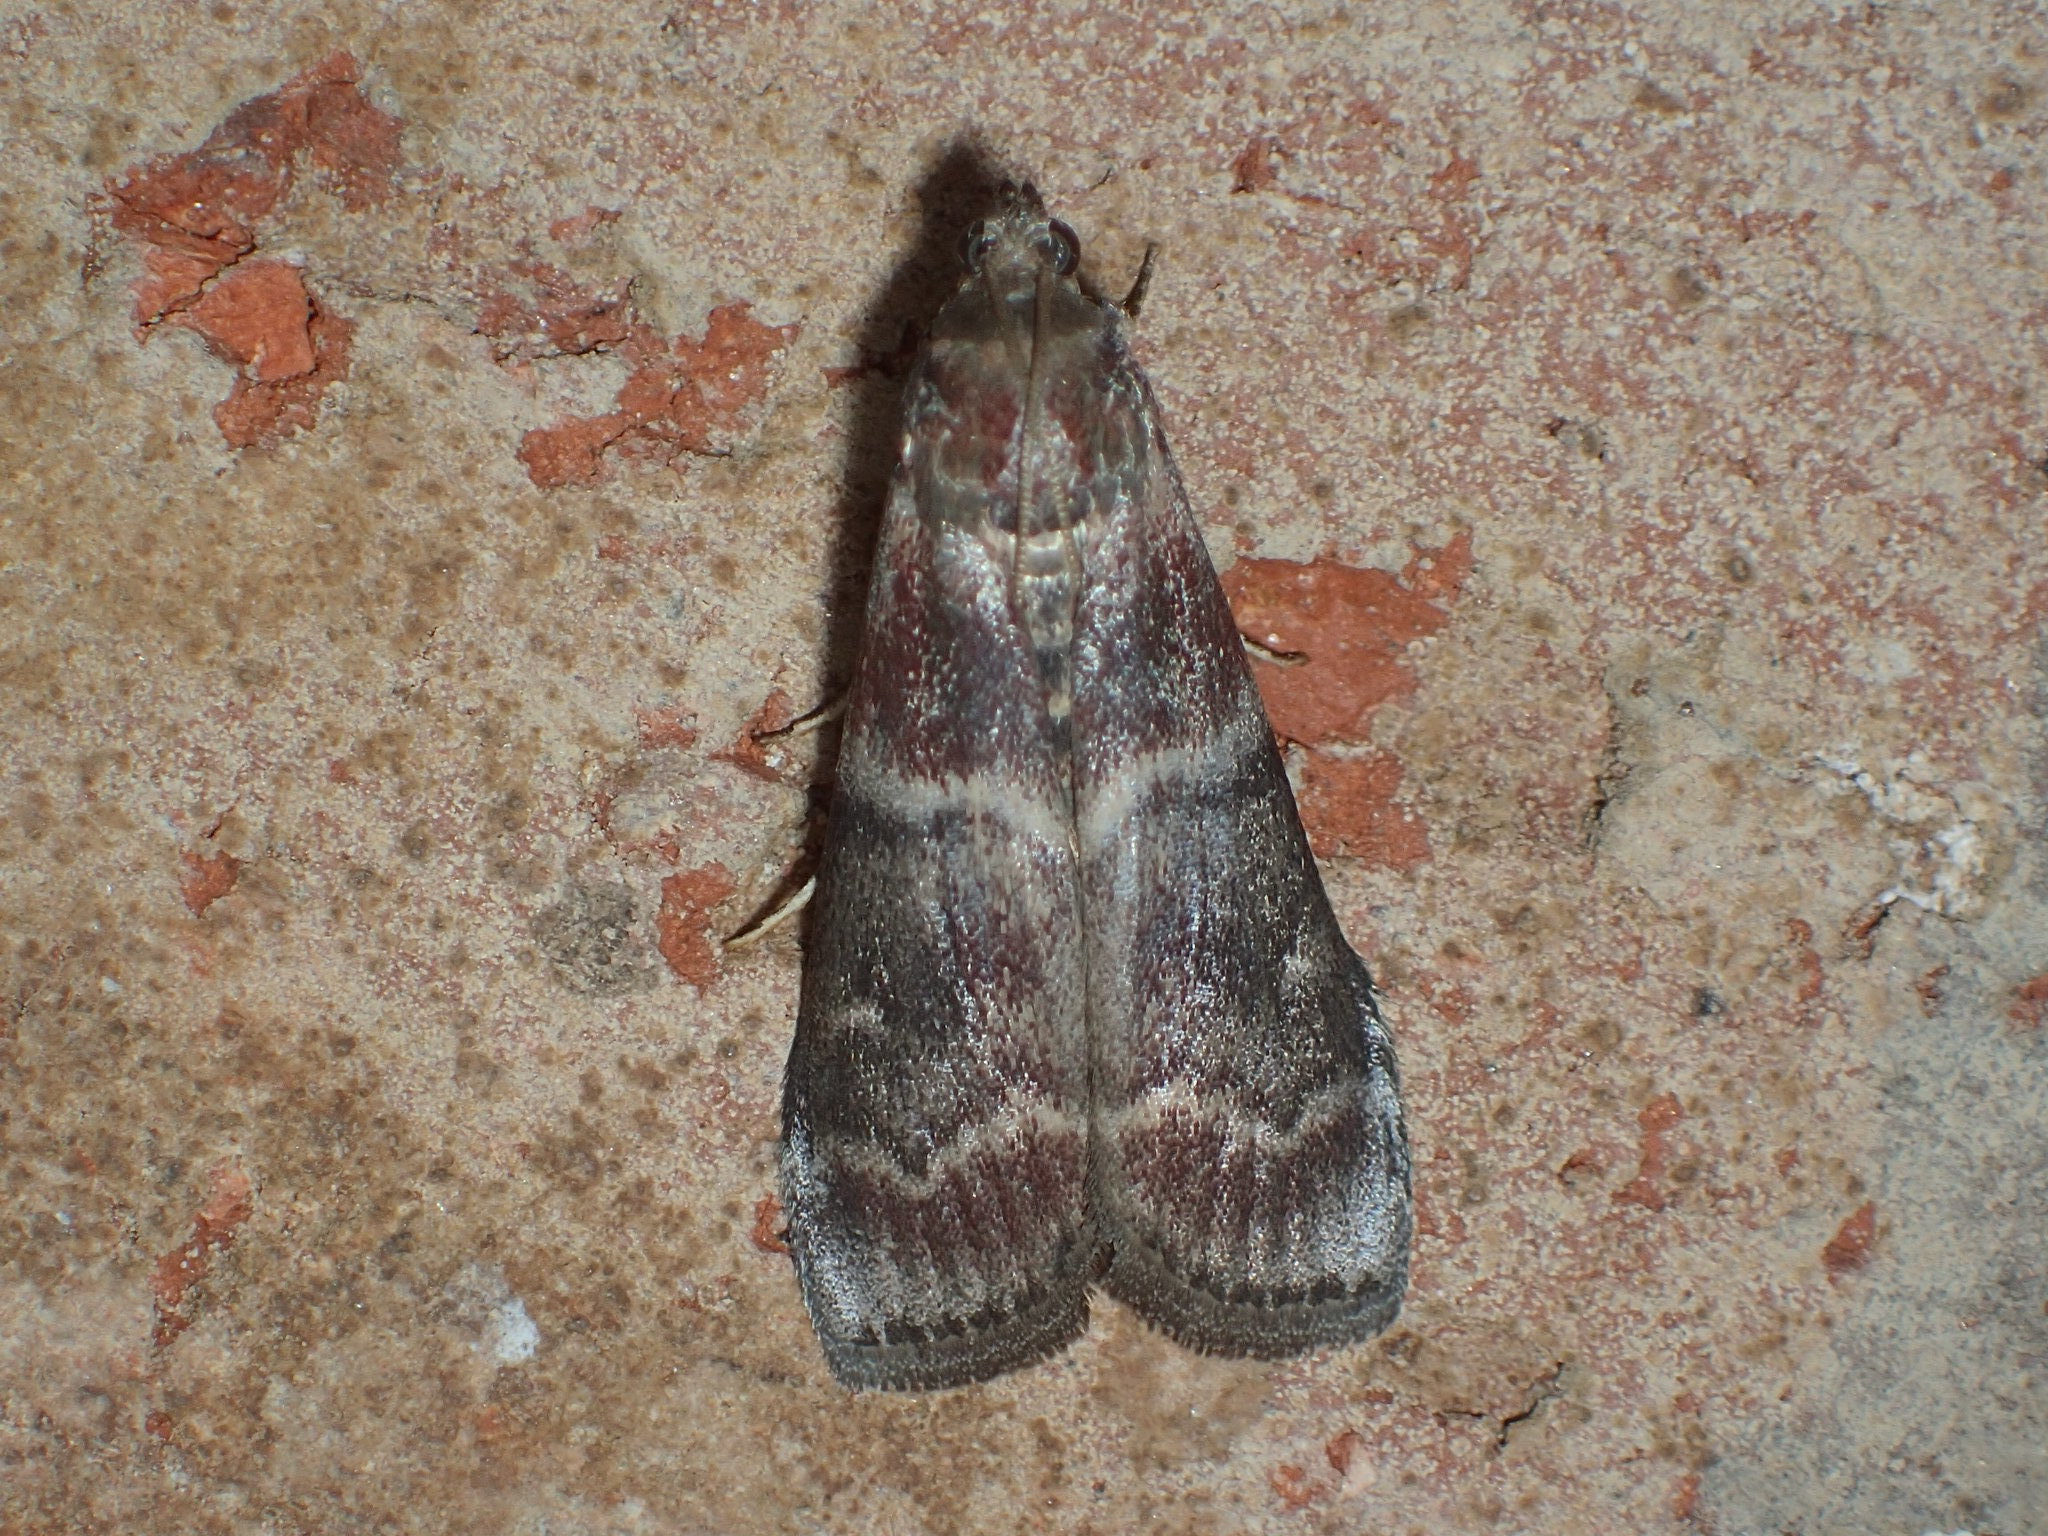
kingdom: Animalia
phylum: Arthropoda
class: Insecta
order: Lepidoptera
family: Pyralidae
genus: Euzophera
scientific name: Euzophera ostricolorella
